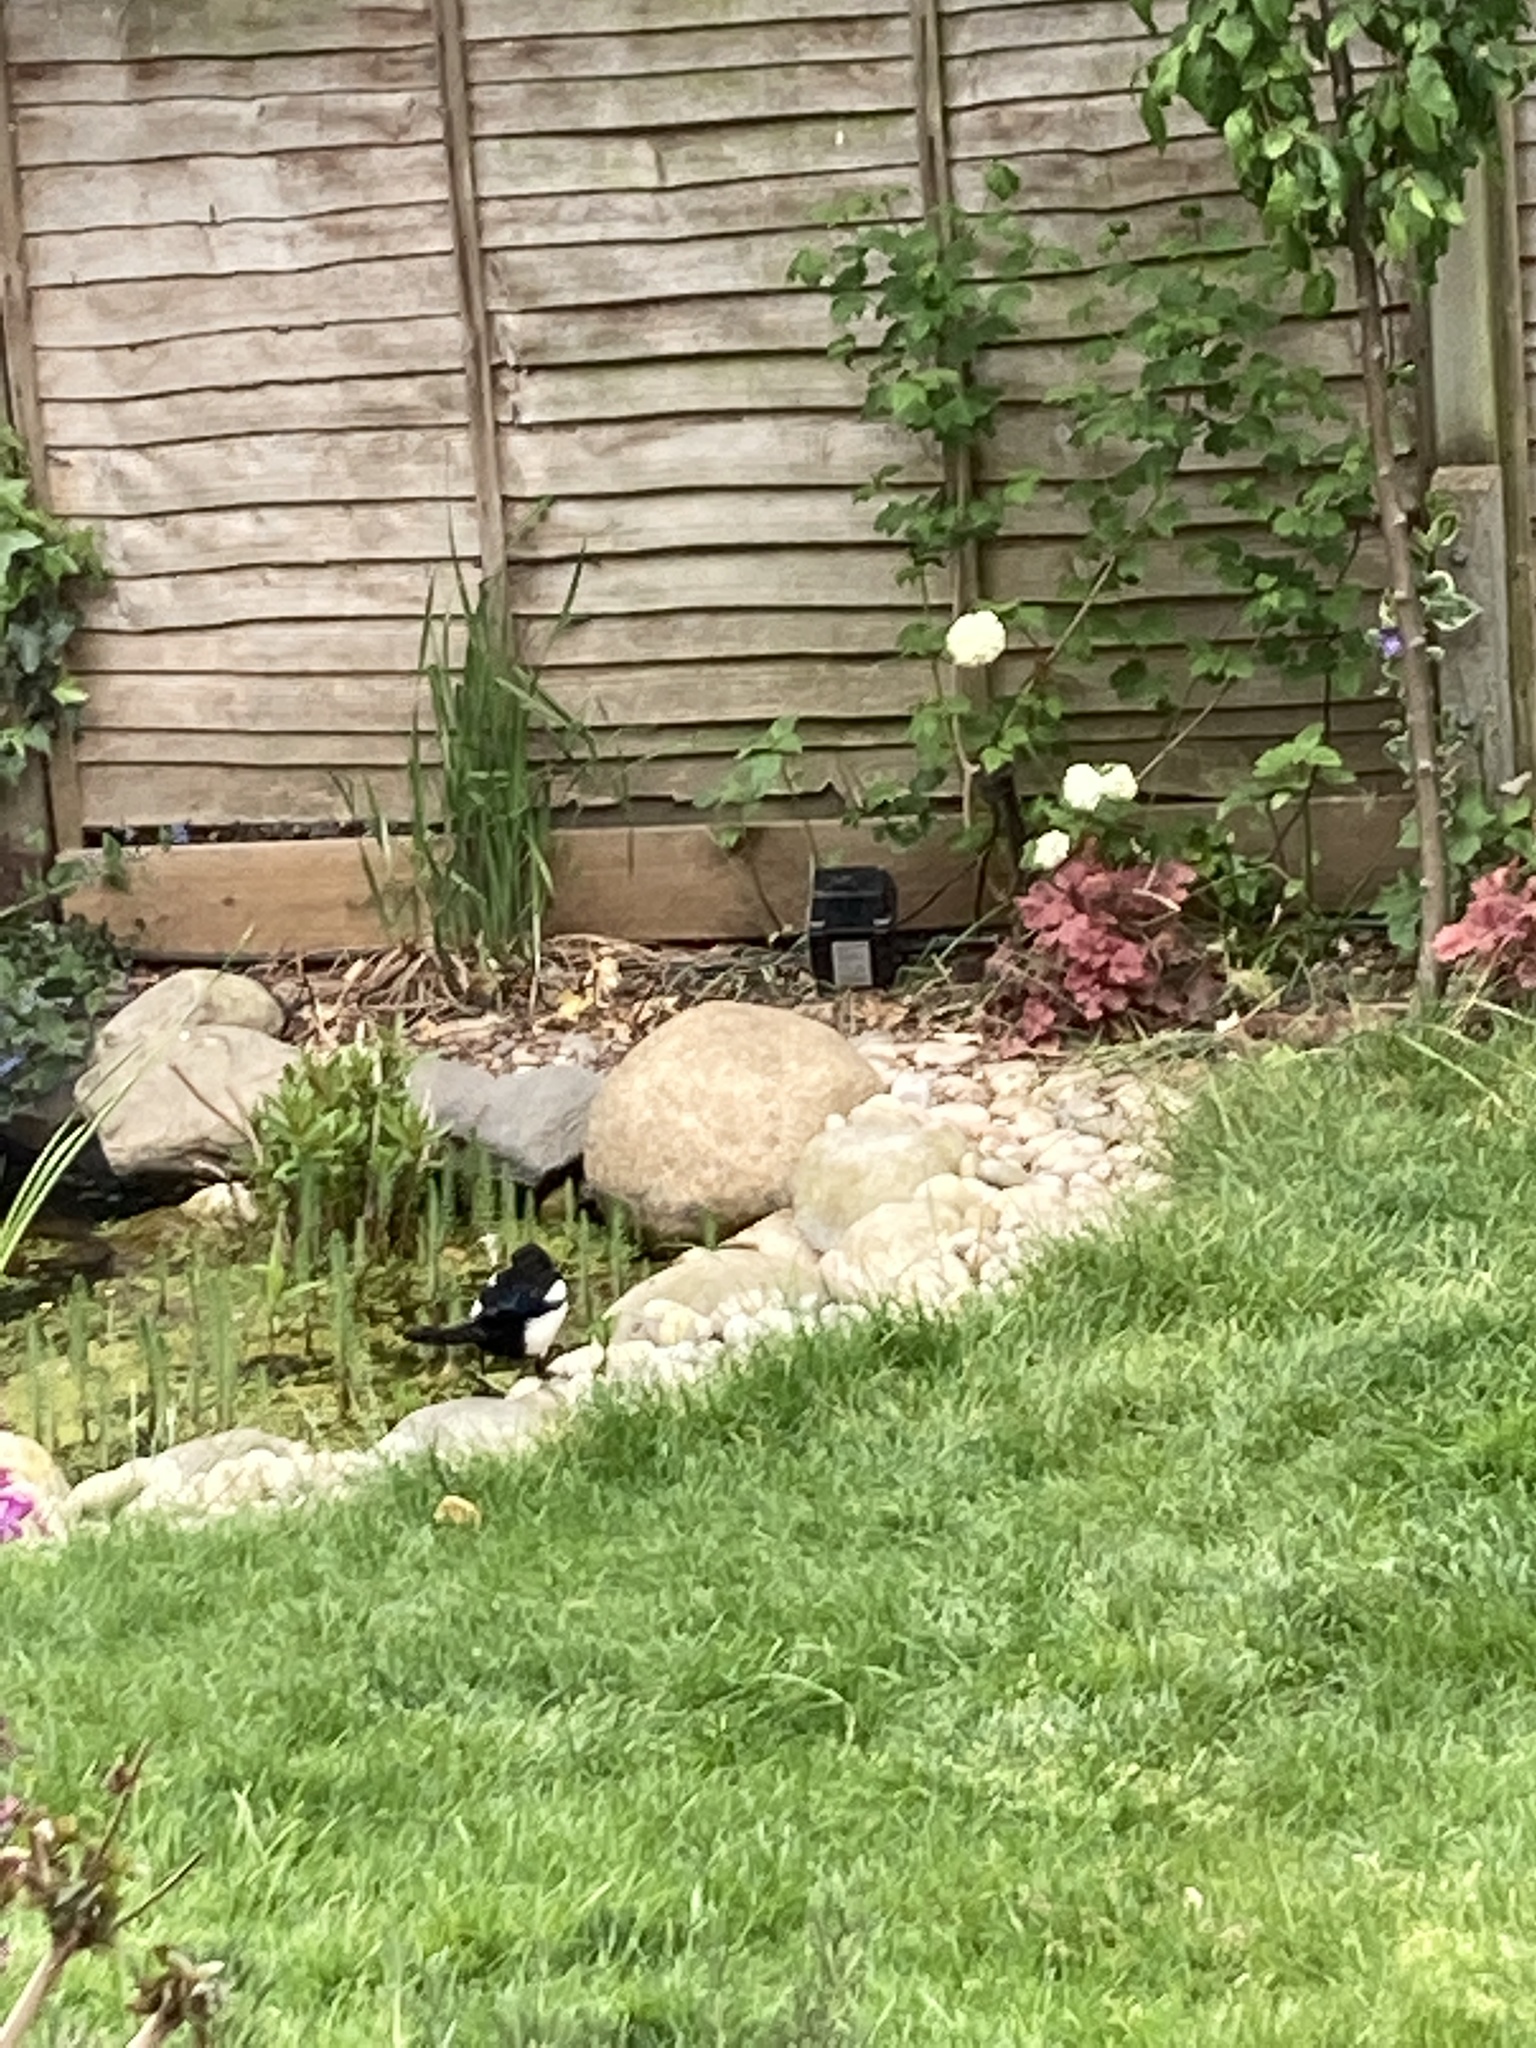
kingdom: Animalia
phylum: Chordata
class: Aves
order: Passeriformes
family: Corvidae
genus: Pica
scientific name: Pica pica
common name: Eurasian magpie
